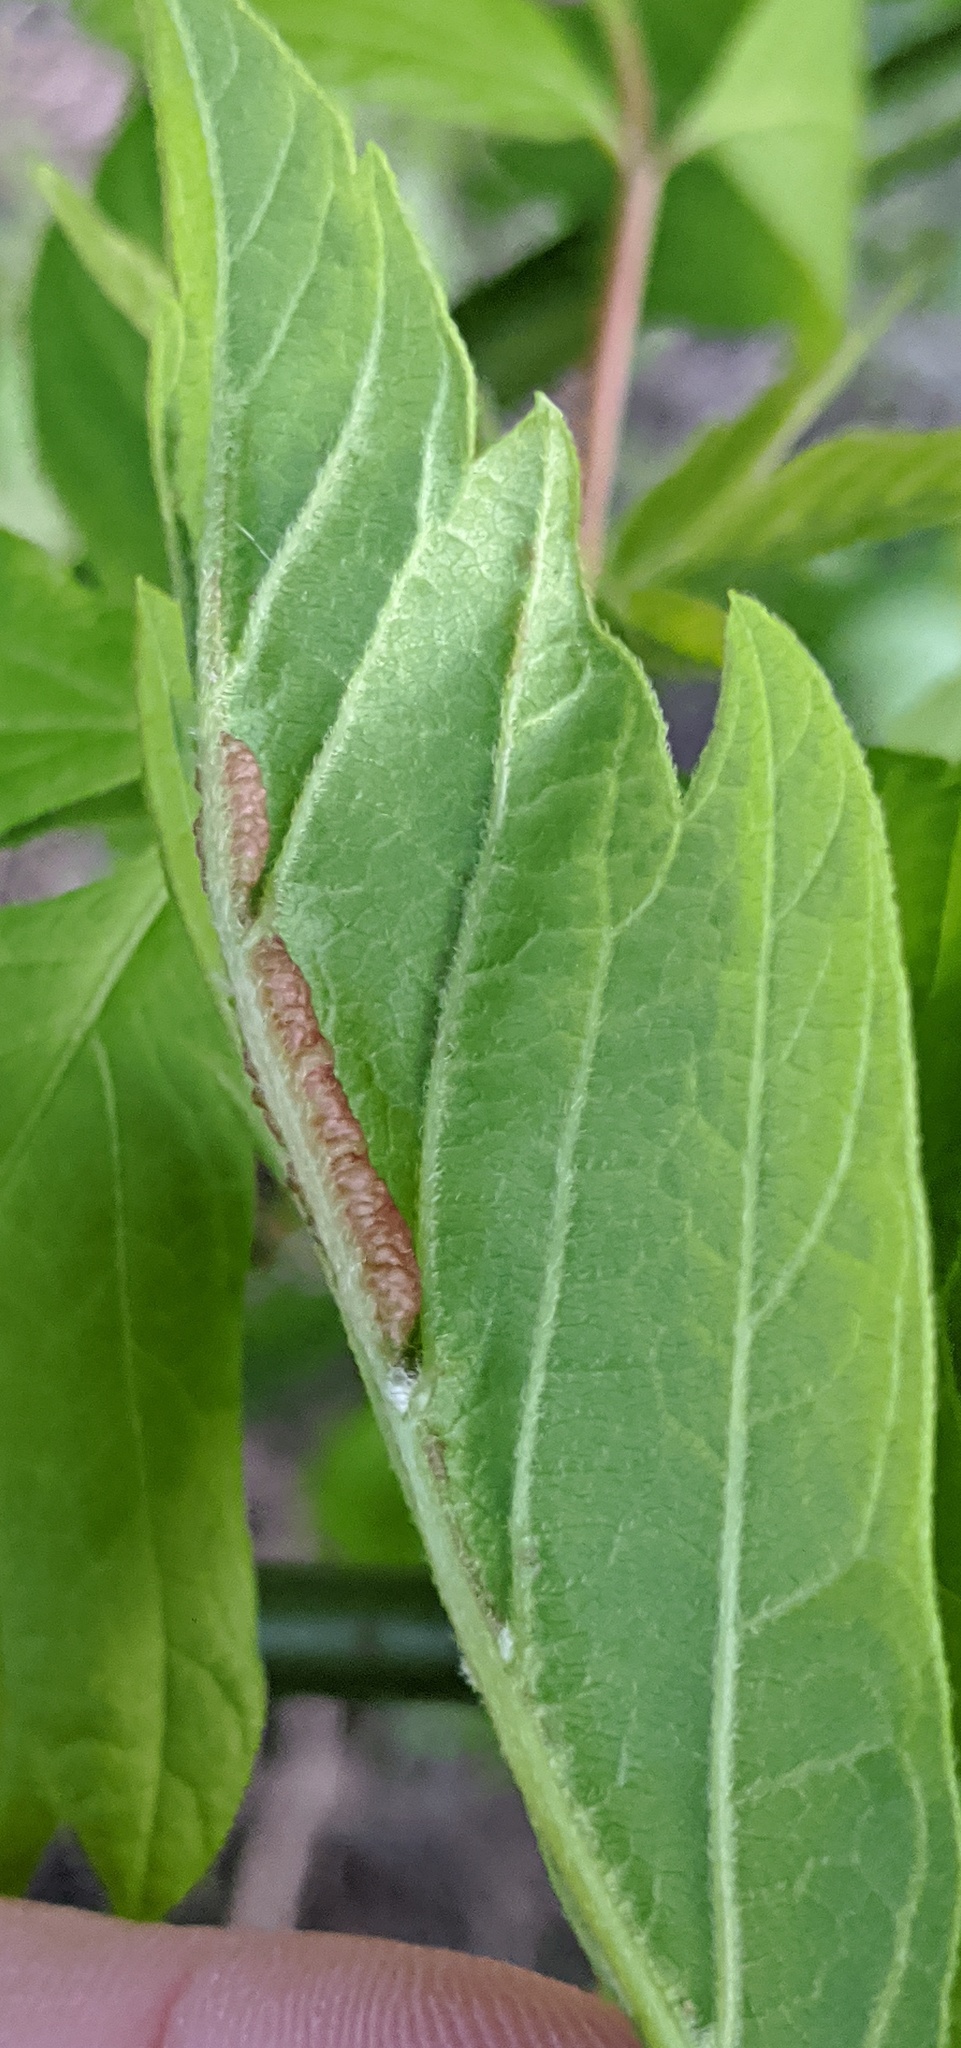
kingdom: Animalia
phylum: Arthropoda
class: Insecta
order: Diptera
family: Cecidomyiidae
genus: Contarinia
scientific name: Contarinia negundinis
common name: Boxelder budgall midge
